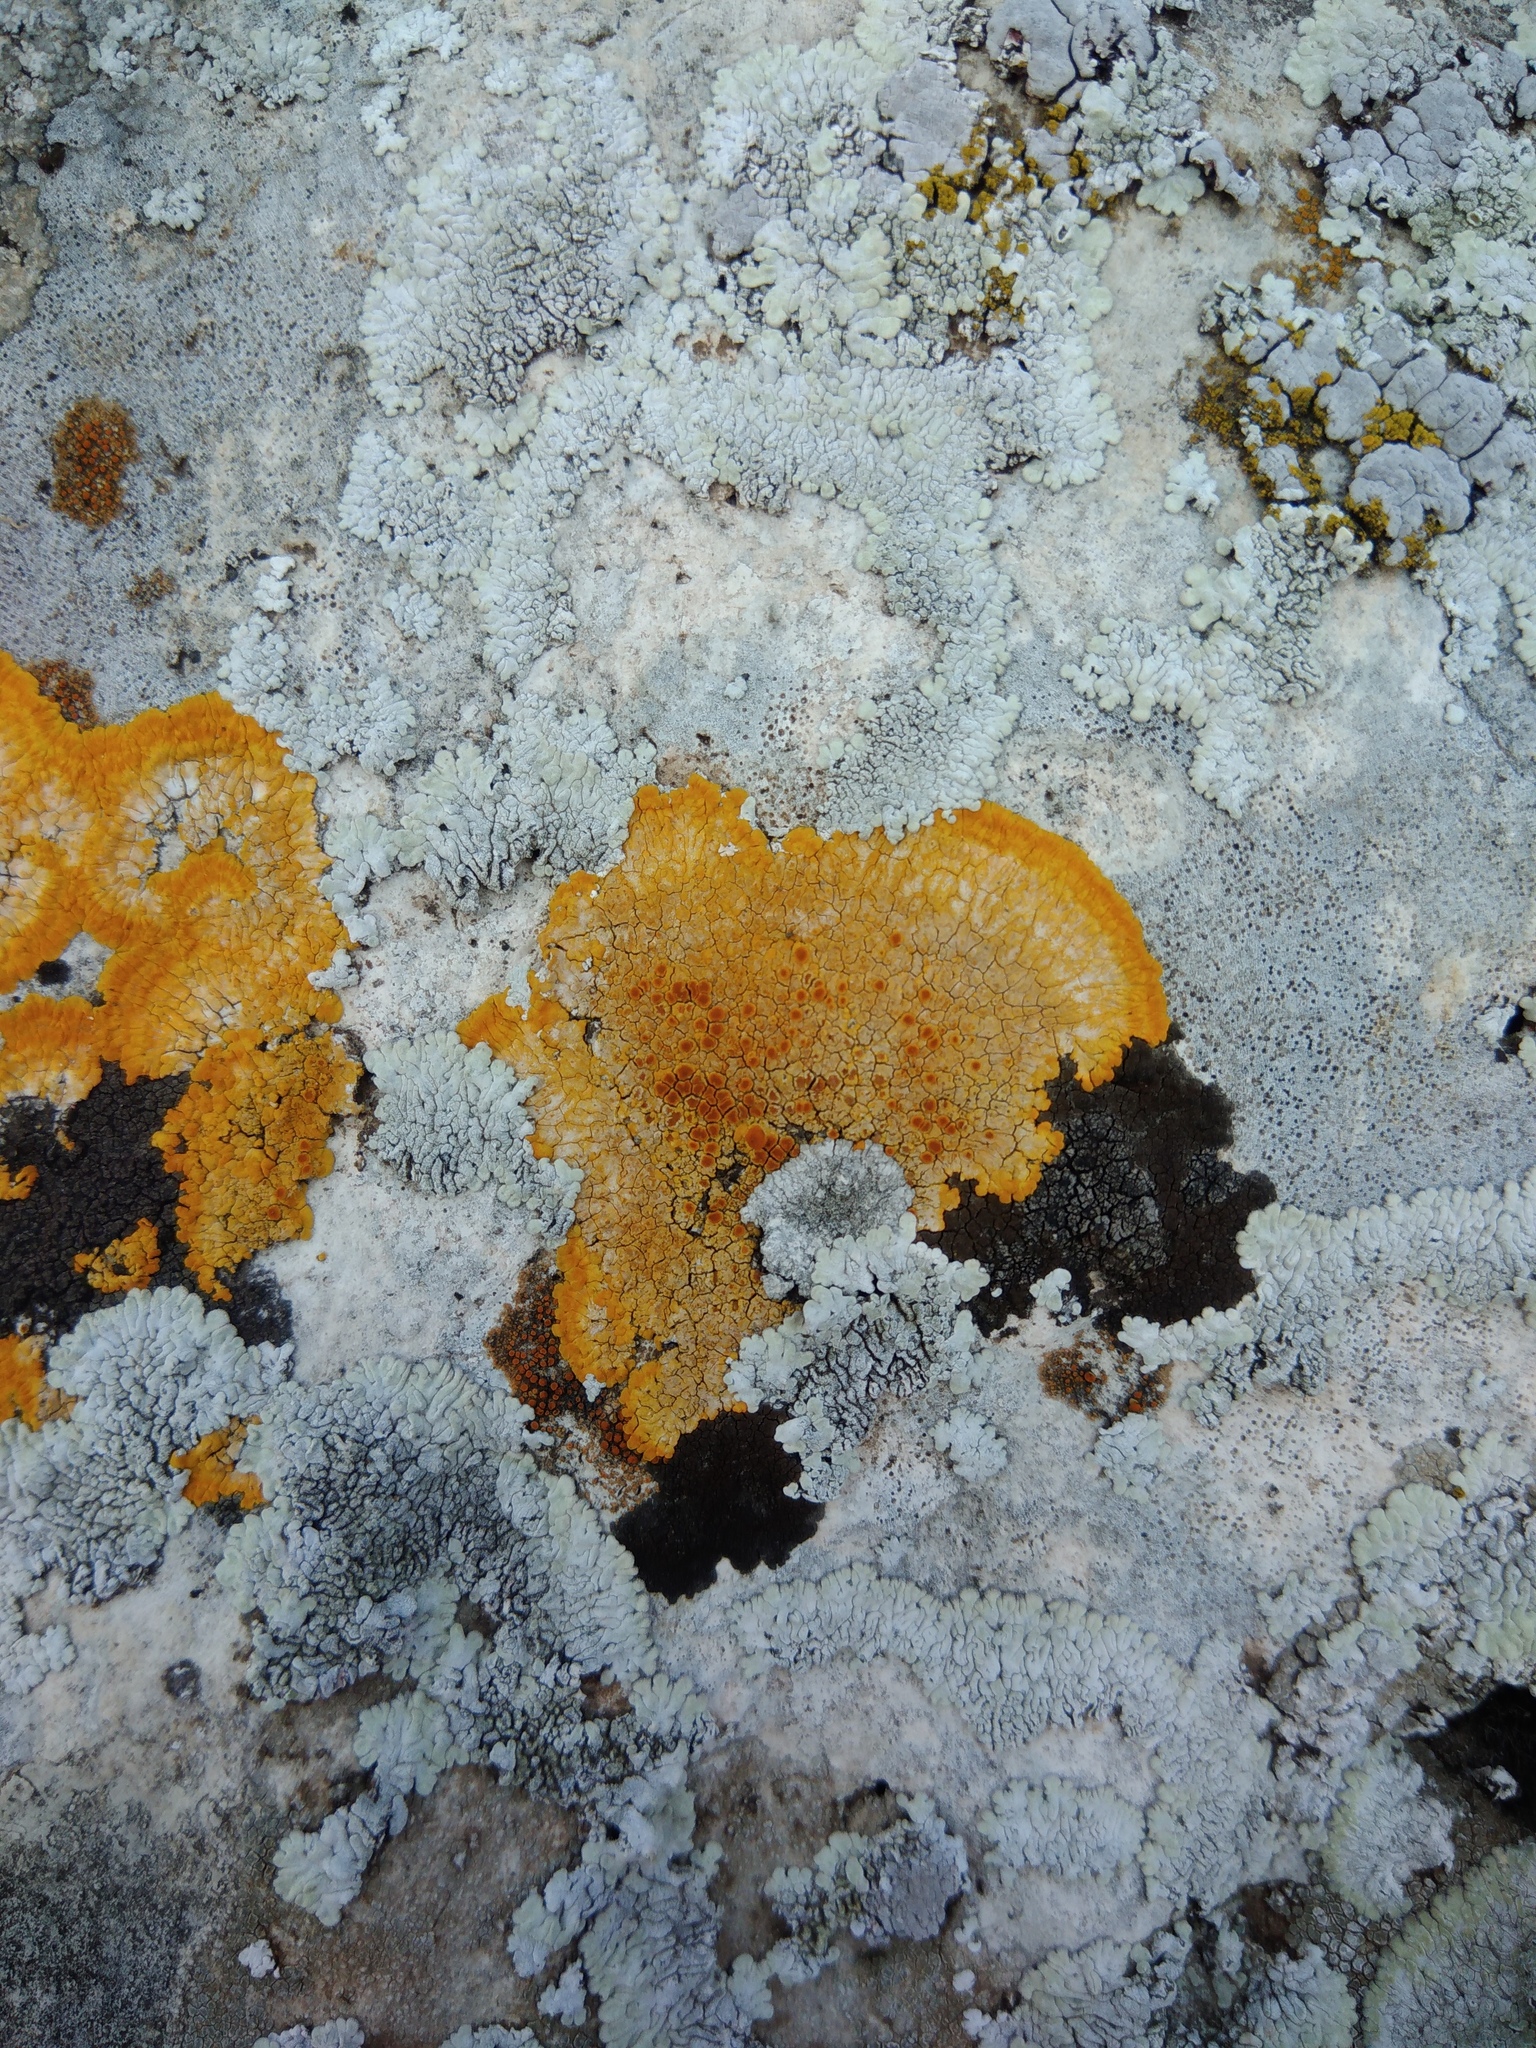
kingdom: Fungi
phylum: Ascomycota
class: Lecanoromycetes
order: Teloschistales
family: Teloschistaceae
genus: Variospora
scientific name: Variospora aurantia
